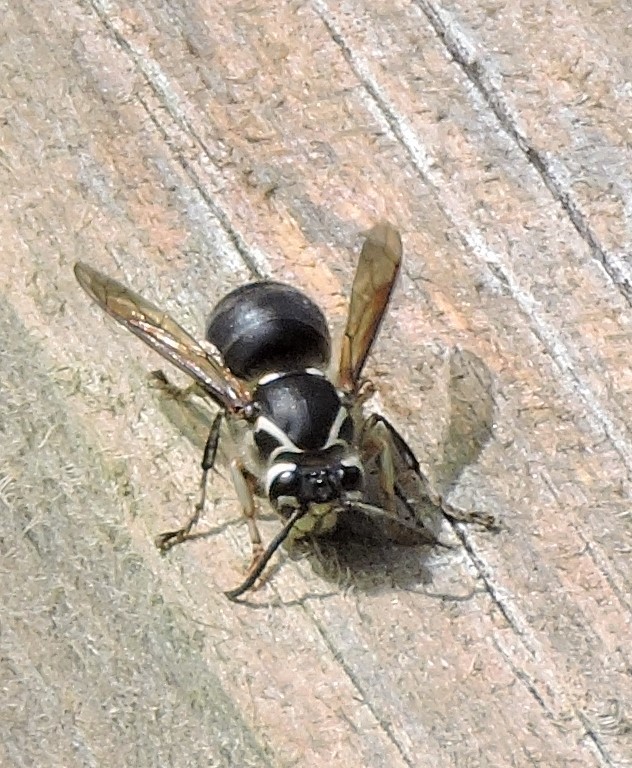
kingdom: Animalia
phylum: Arthropoda
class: Insecta
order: Hymenoptera
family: Vespidae
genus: Dolichovespula
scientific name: Dolichovespula maculata
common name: Bald-faced hornet
